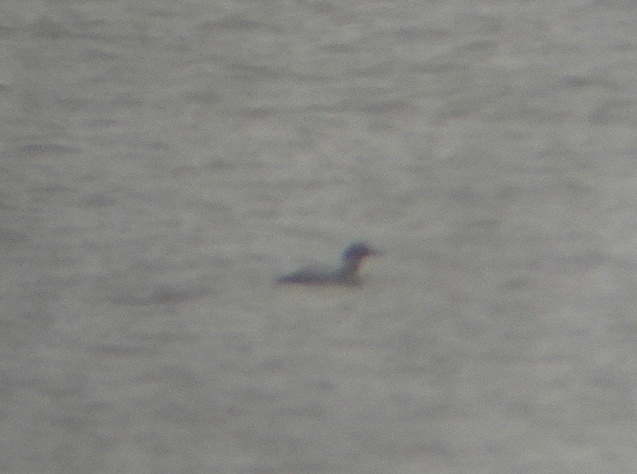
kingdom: Animalia
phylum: Chordata
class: Aves
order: Gaviiformes
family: Gaviidae
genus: Gavia
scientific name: Gavia immer
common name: Common loon
